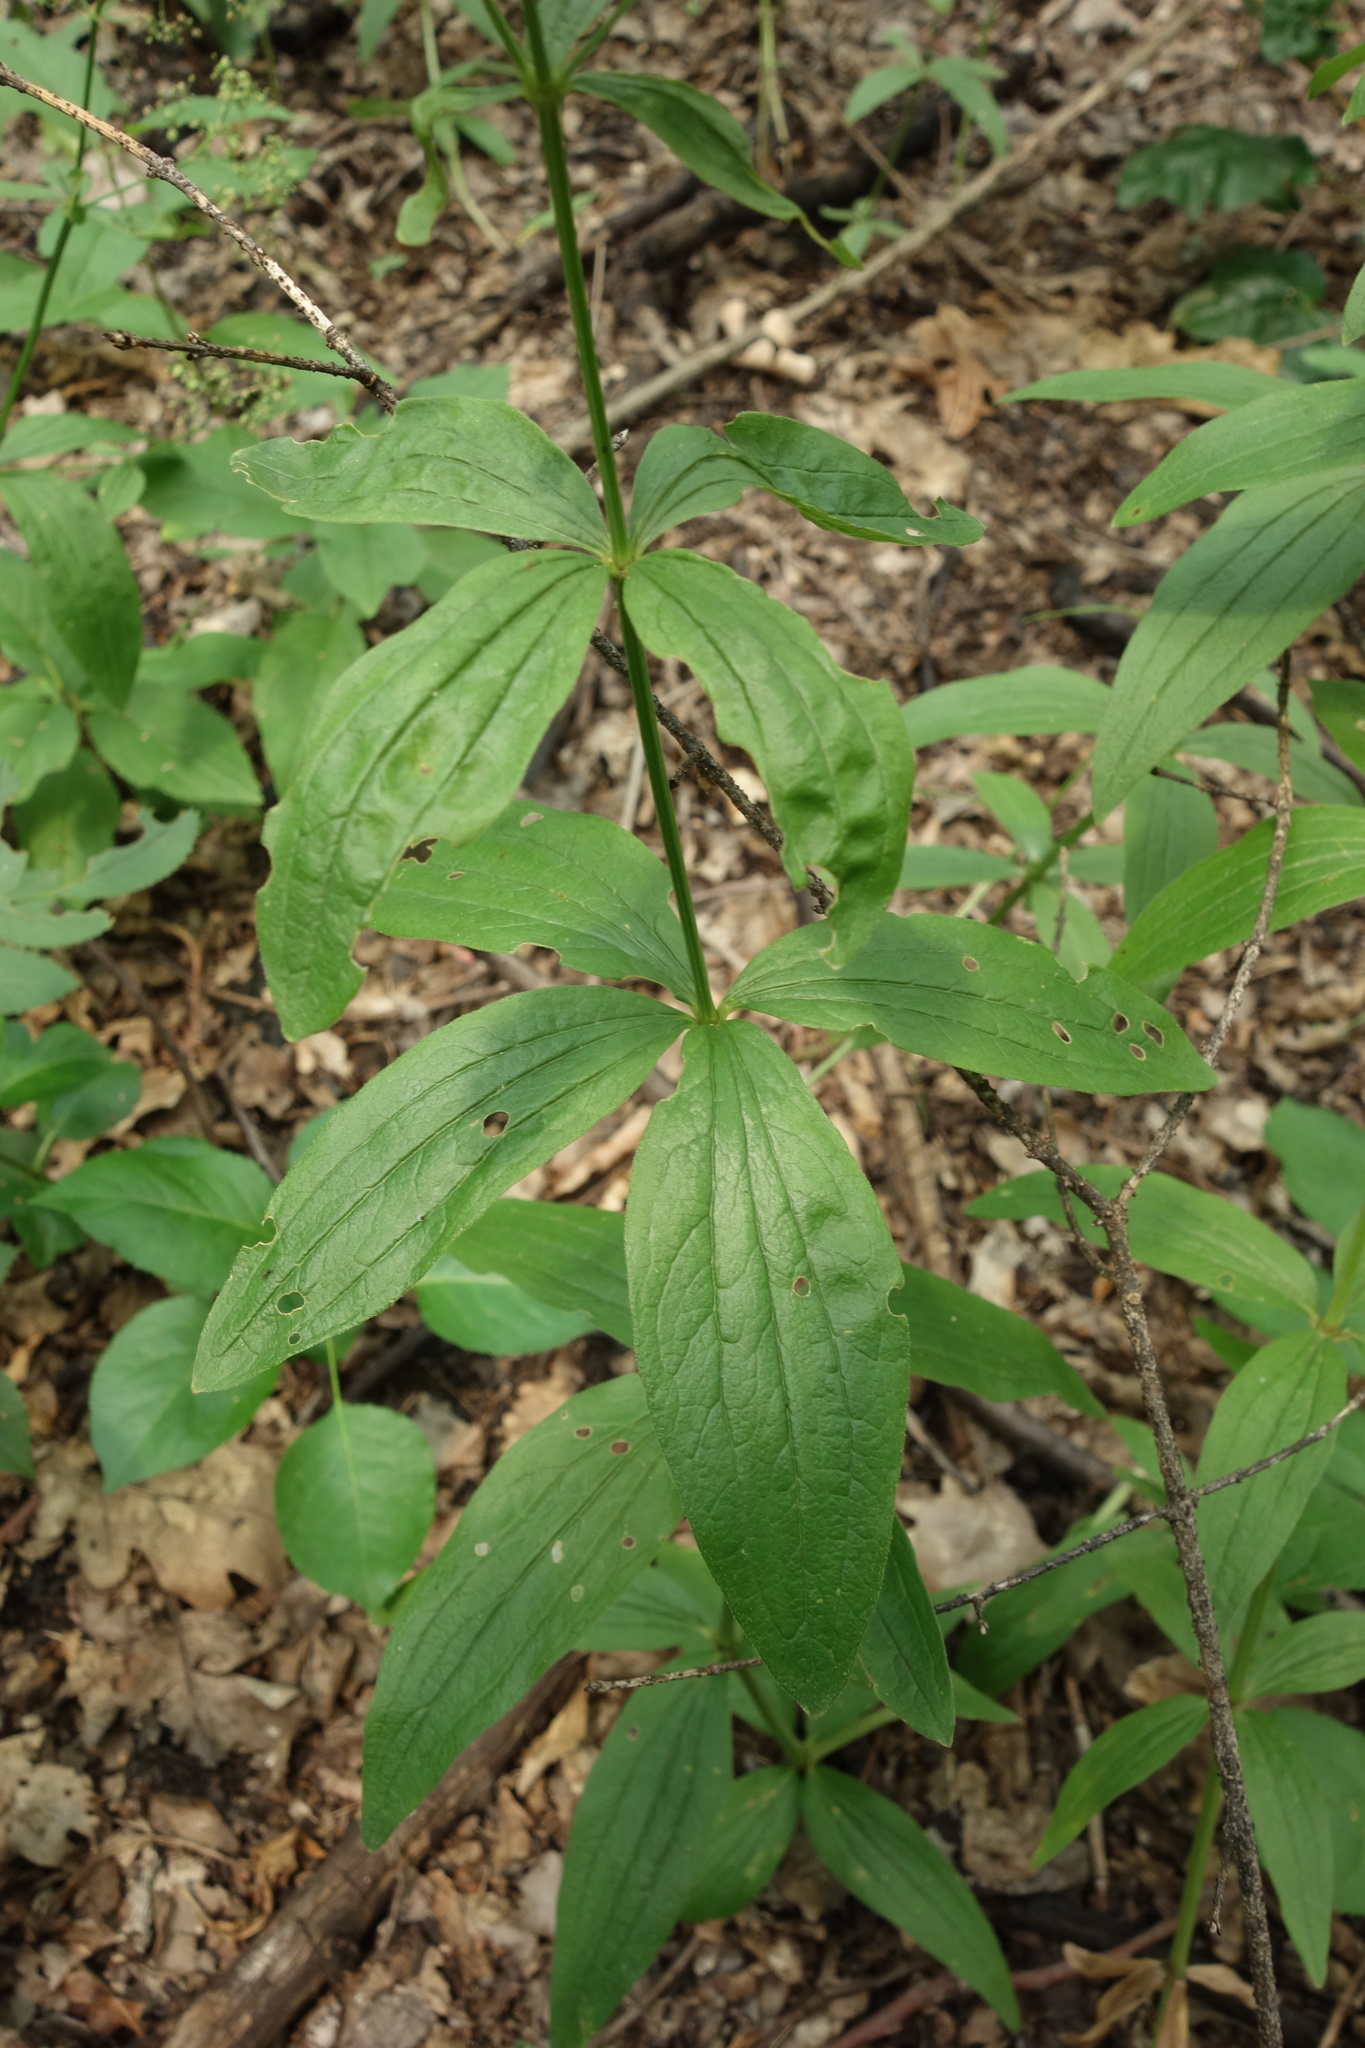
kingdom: Plantae
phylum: Tracheophyta
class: Magnoliopsida
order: Gentianales
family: Rubiaceae
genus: Galium
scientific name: Galium rubioides
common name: European bedstraw
